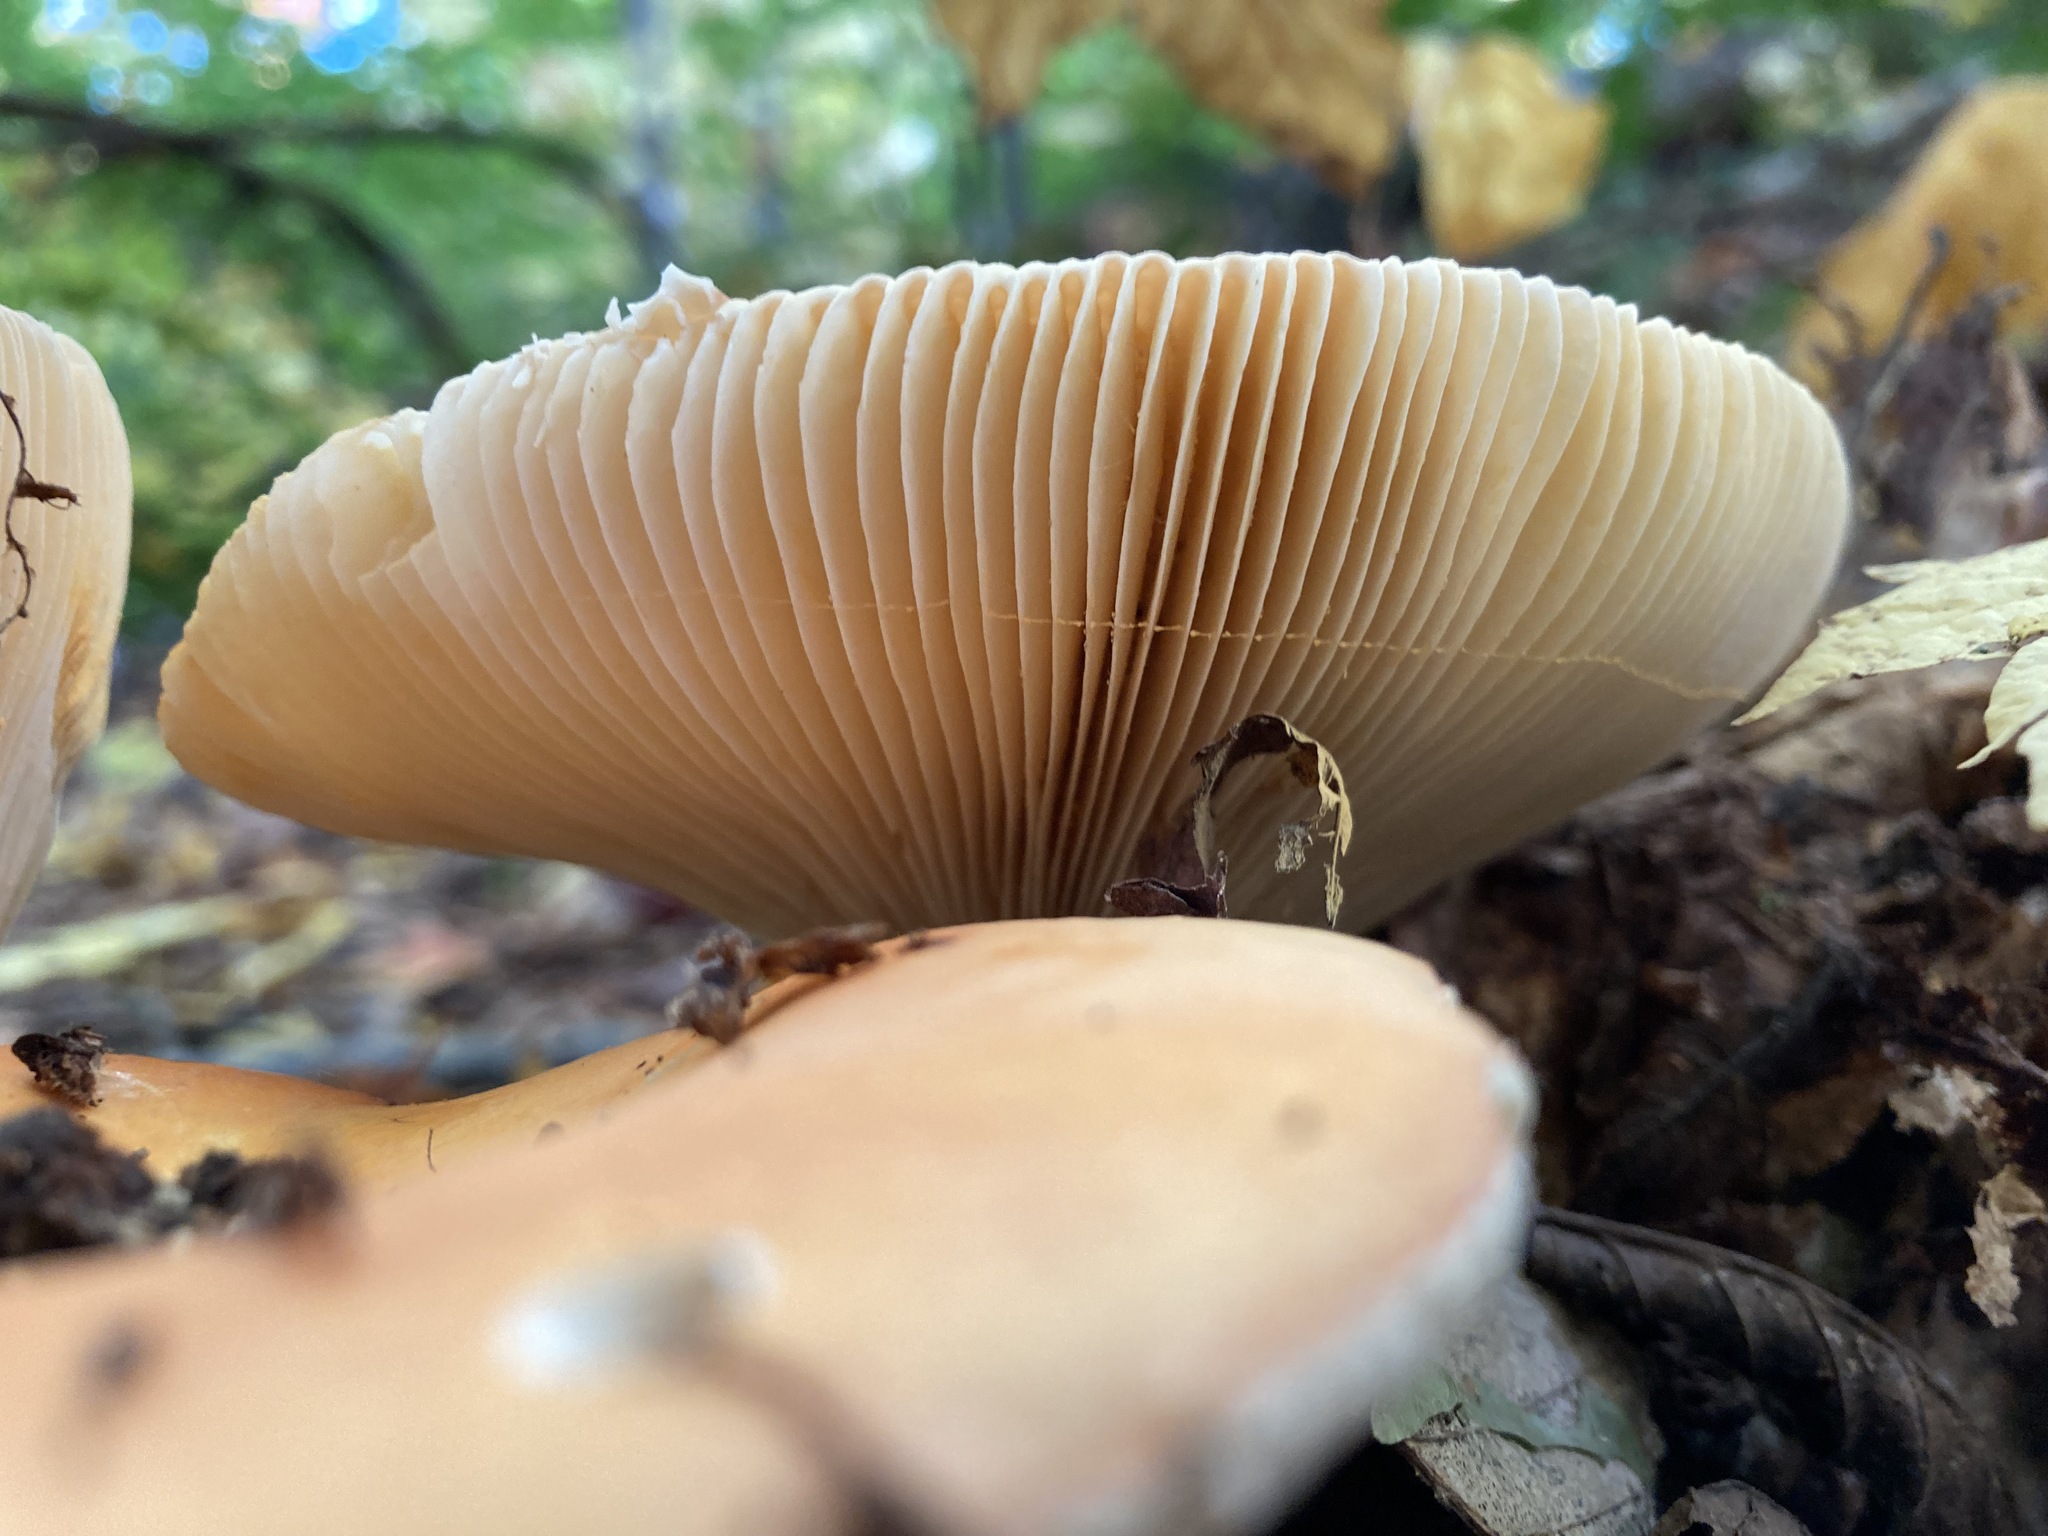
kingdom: Fungi
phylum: Basidiomycota
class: Agaricomycetes
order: Russulales
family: Russulaceae
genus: Russula
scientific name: Russula decolorans
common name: Copper brittlegill
